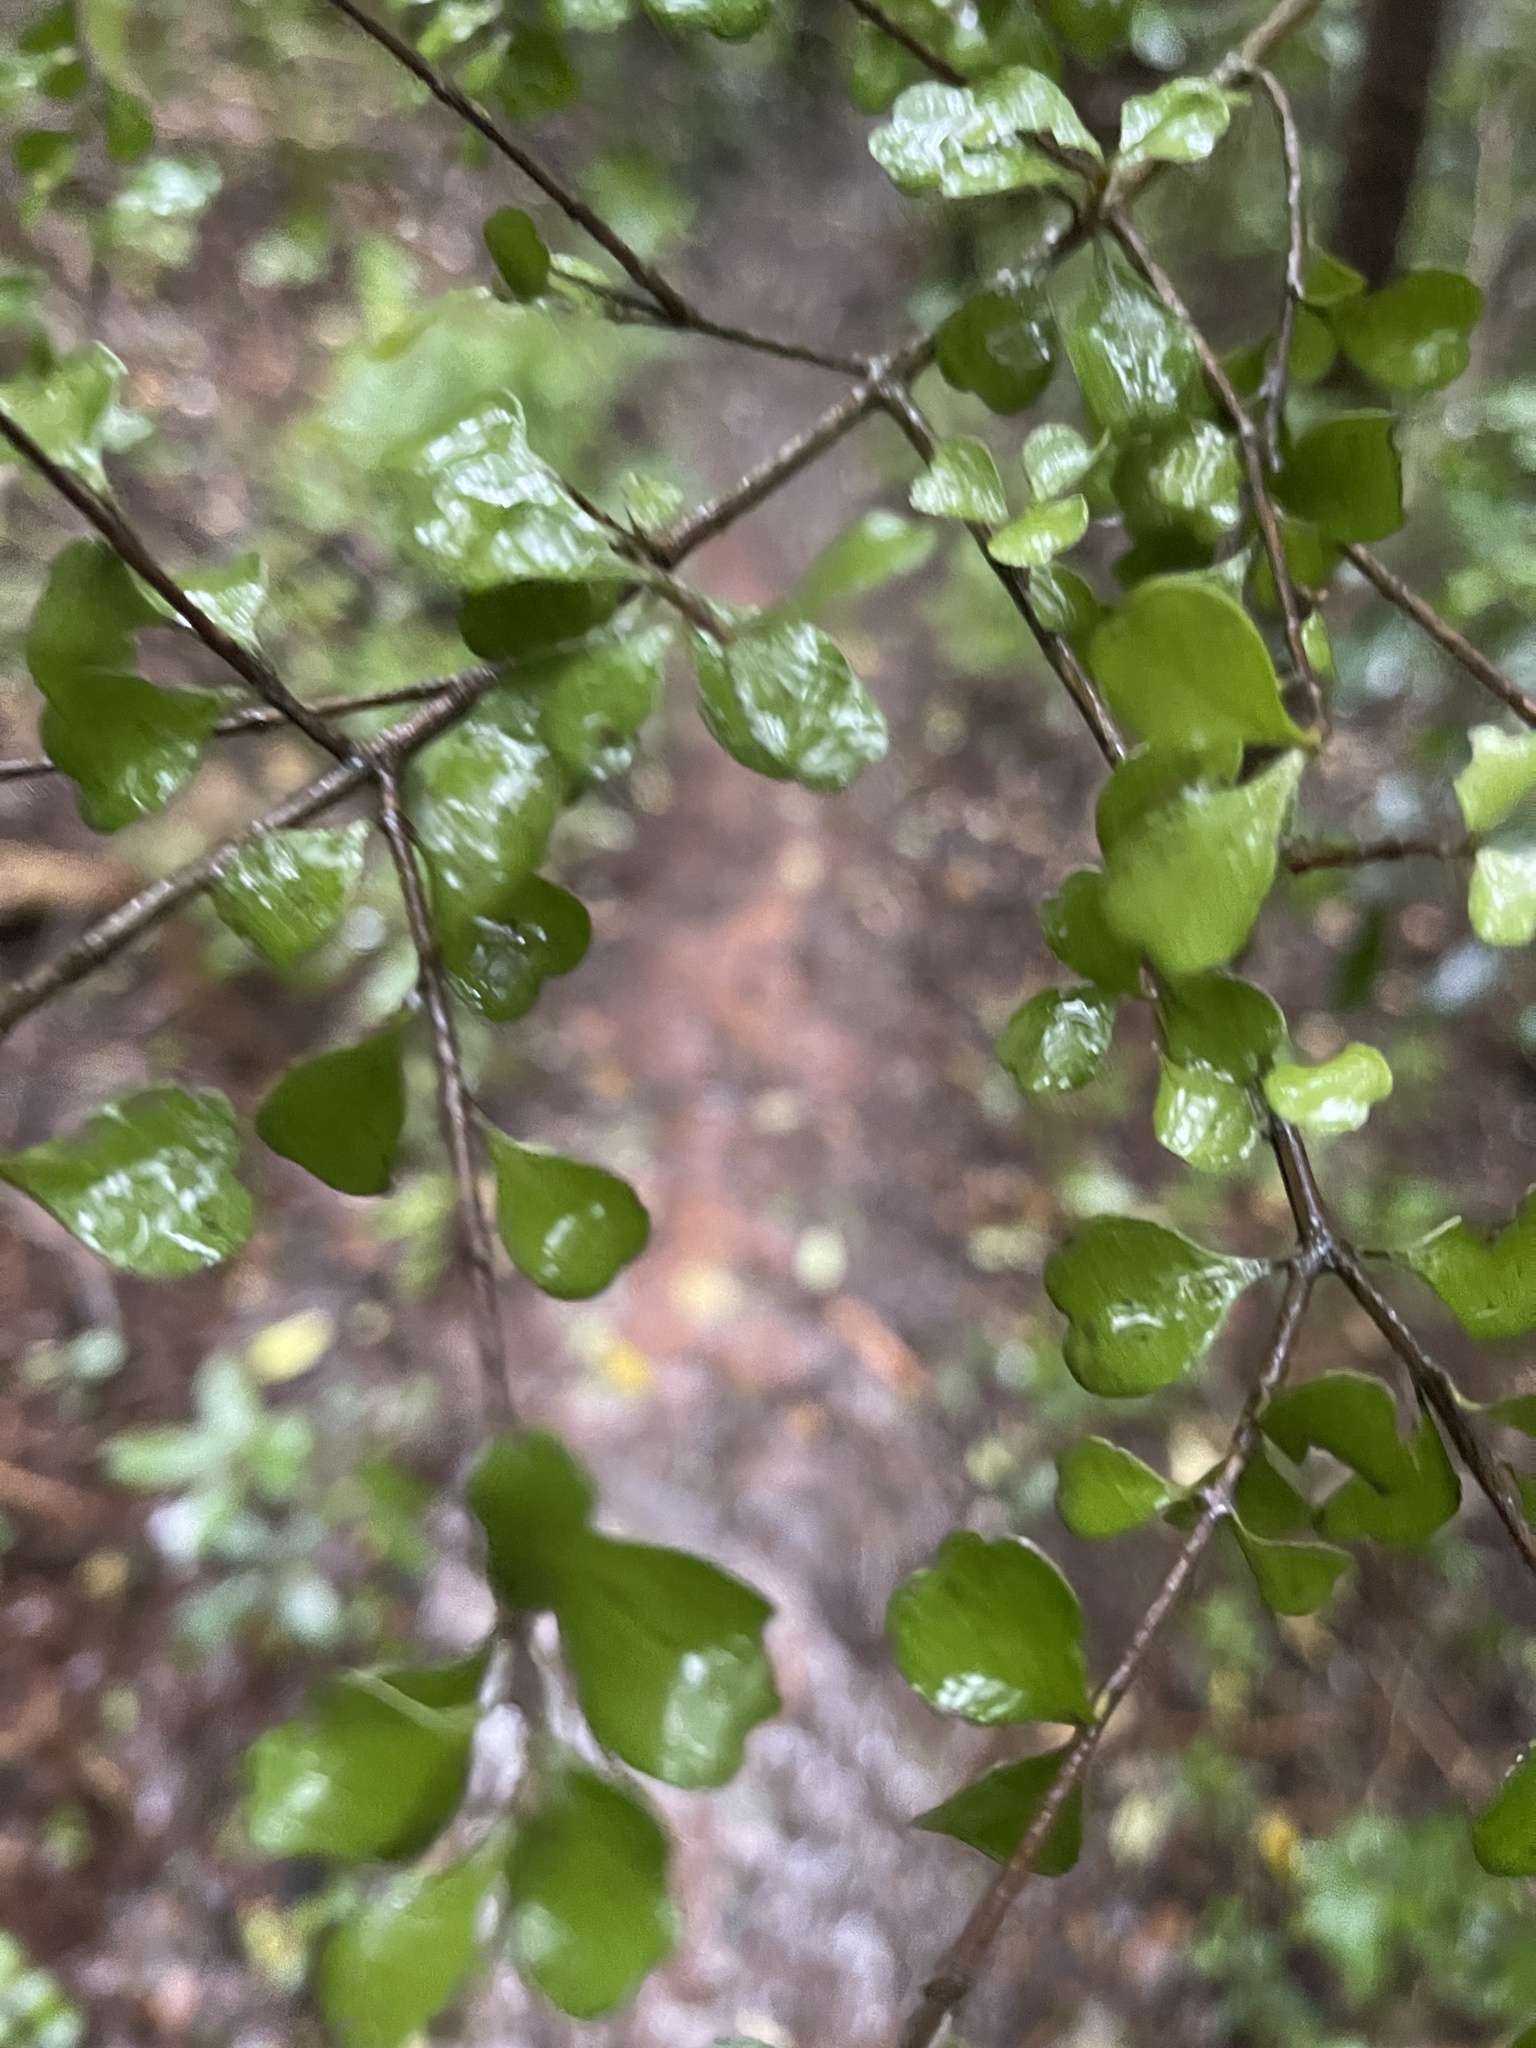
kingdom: Plantae
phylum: Tracheophyta
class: Magnoliopsida
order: Myrtales
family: Myrtaceae
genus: Lophomyrtus
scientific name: Lophomyrtus obcordata
